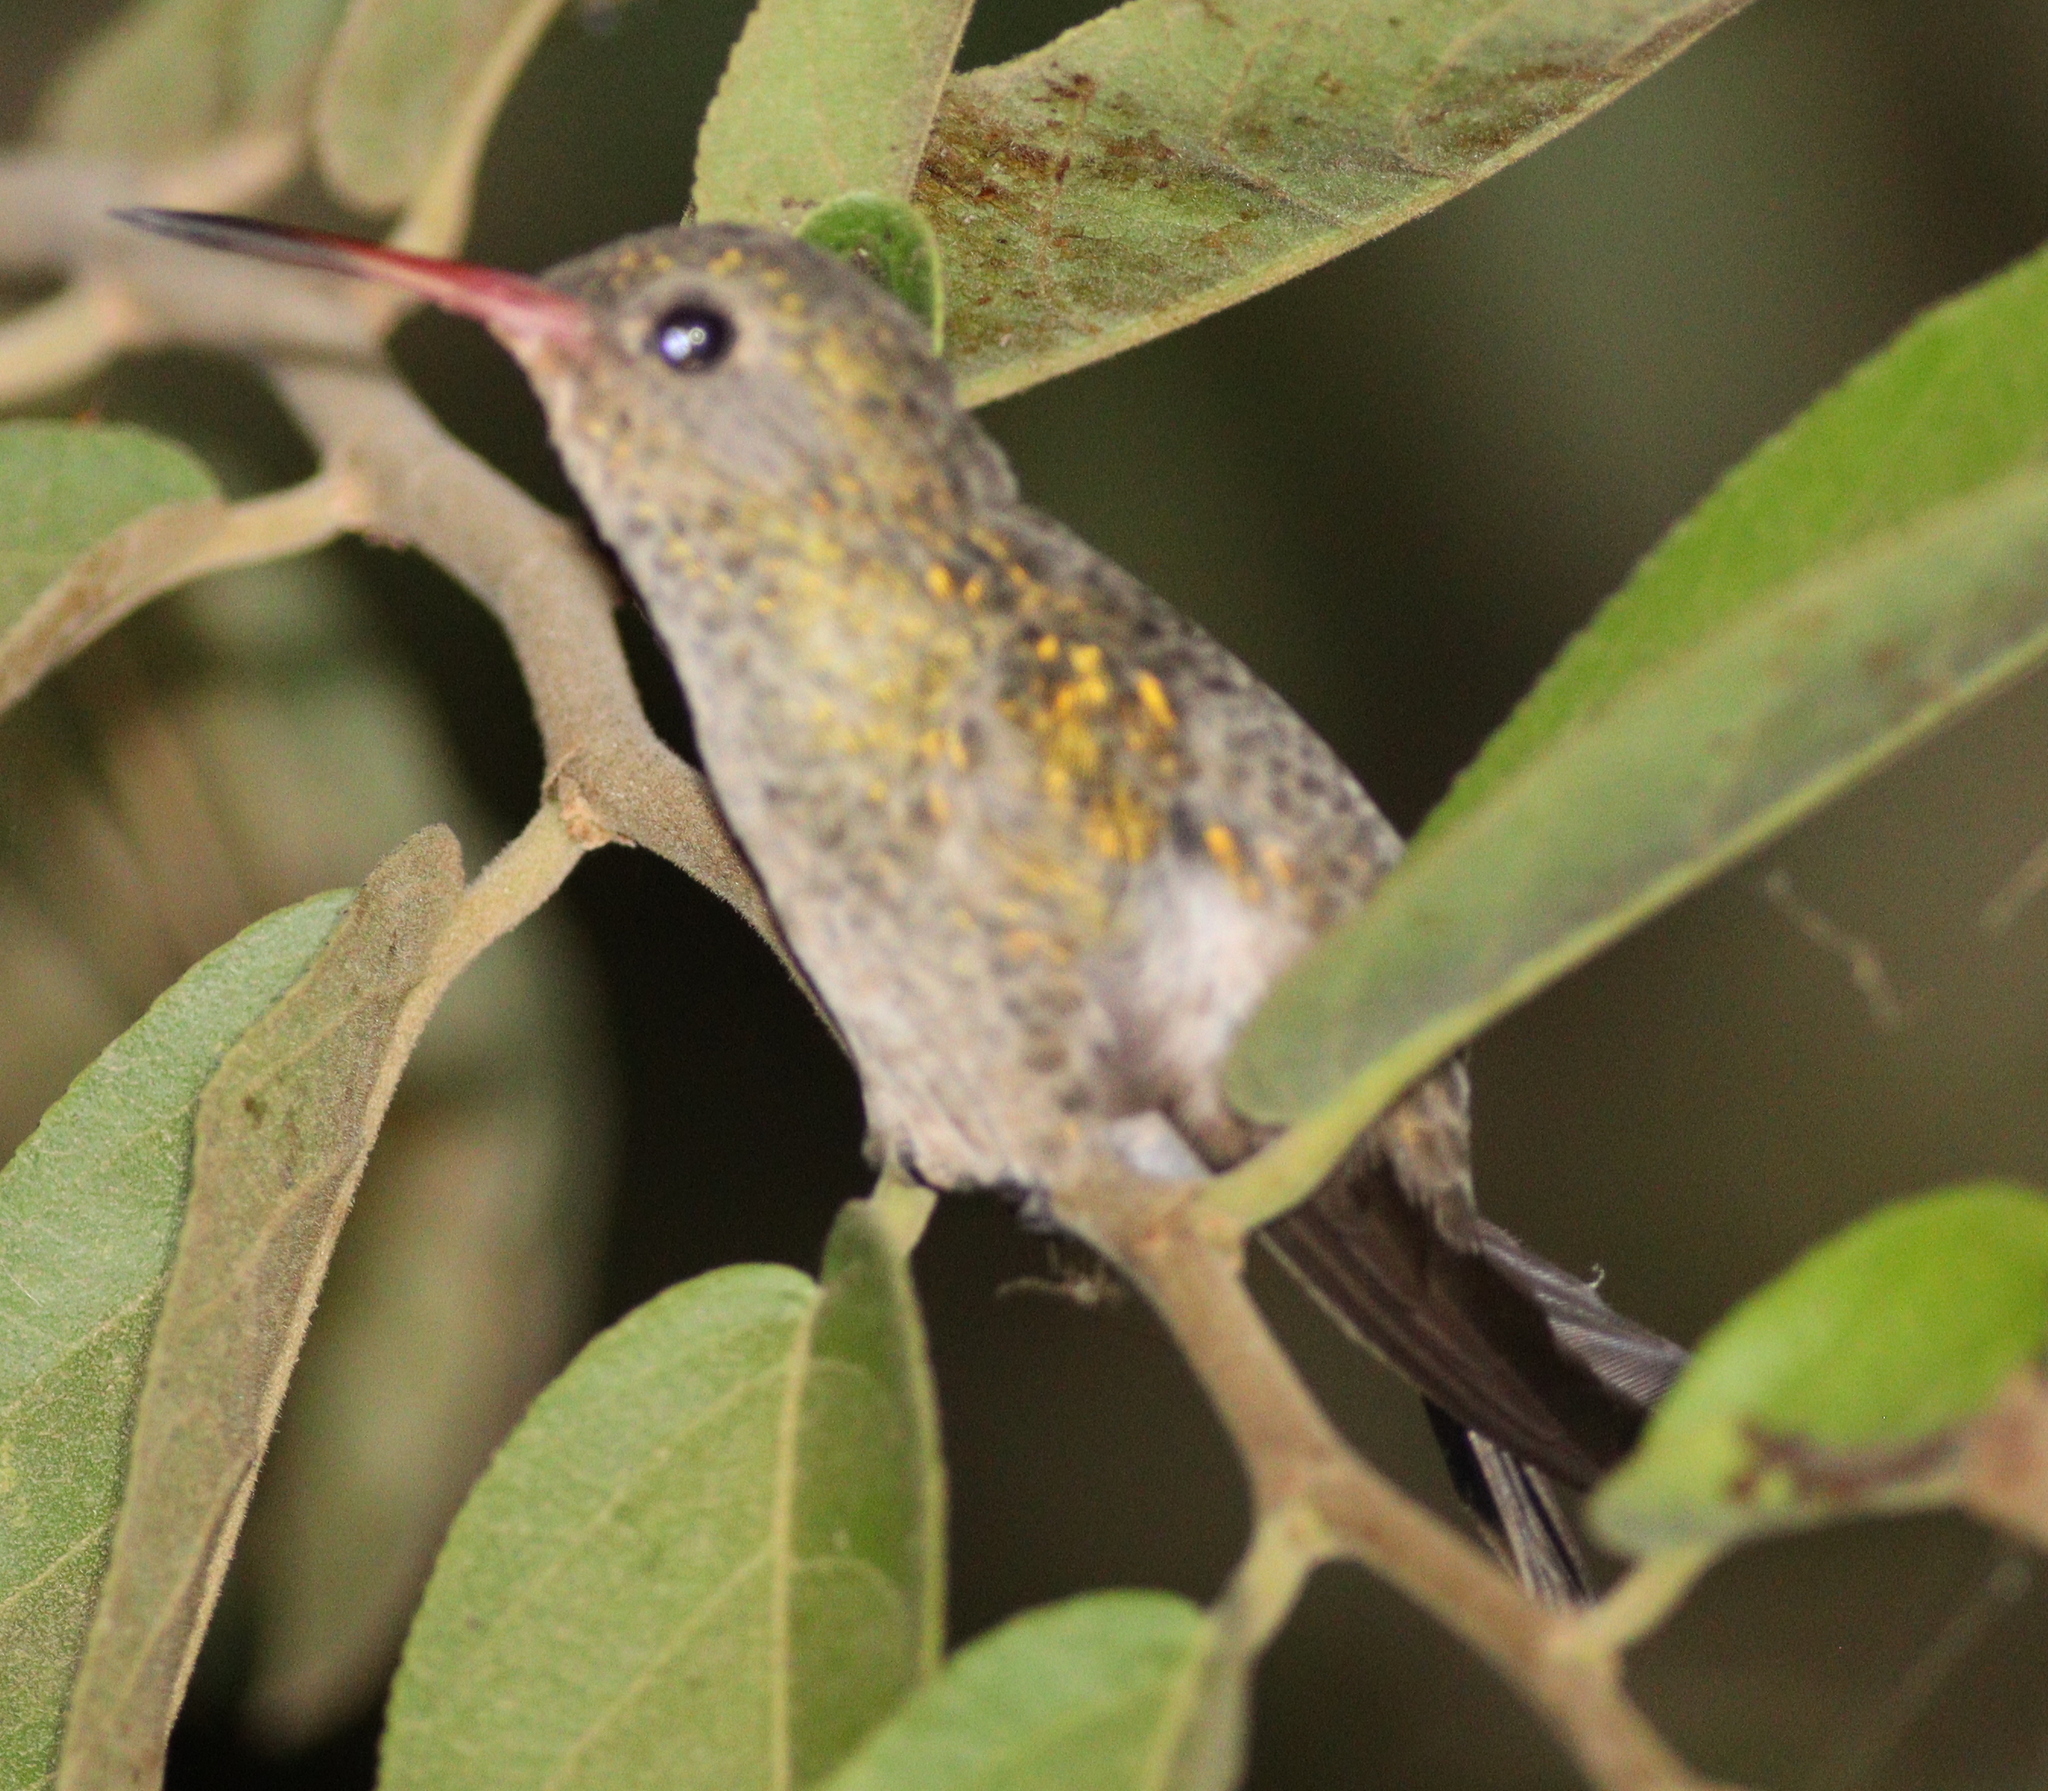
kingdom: Animalia
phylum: Chordata
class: Aves
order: Apodiformes
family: Trochilidae
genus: Hylocharis
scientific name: Hylocharis chrysura
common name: Gilded sapphire
